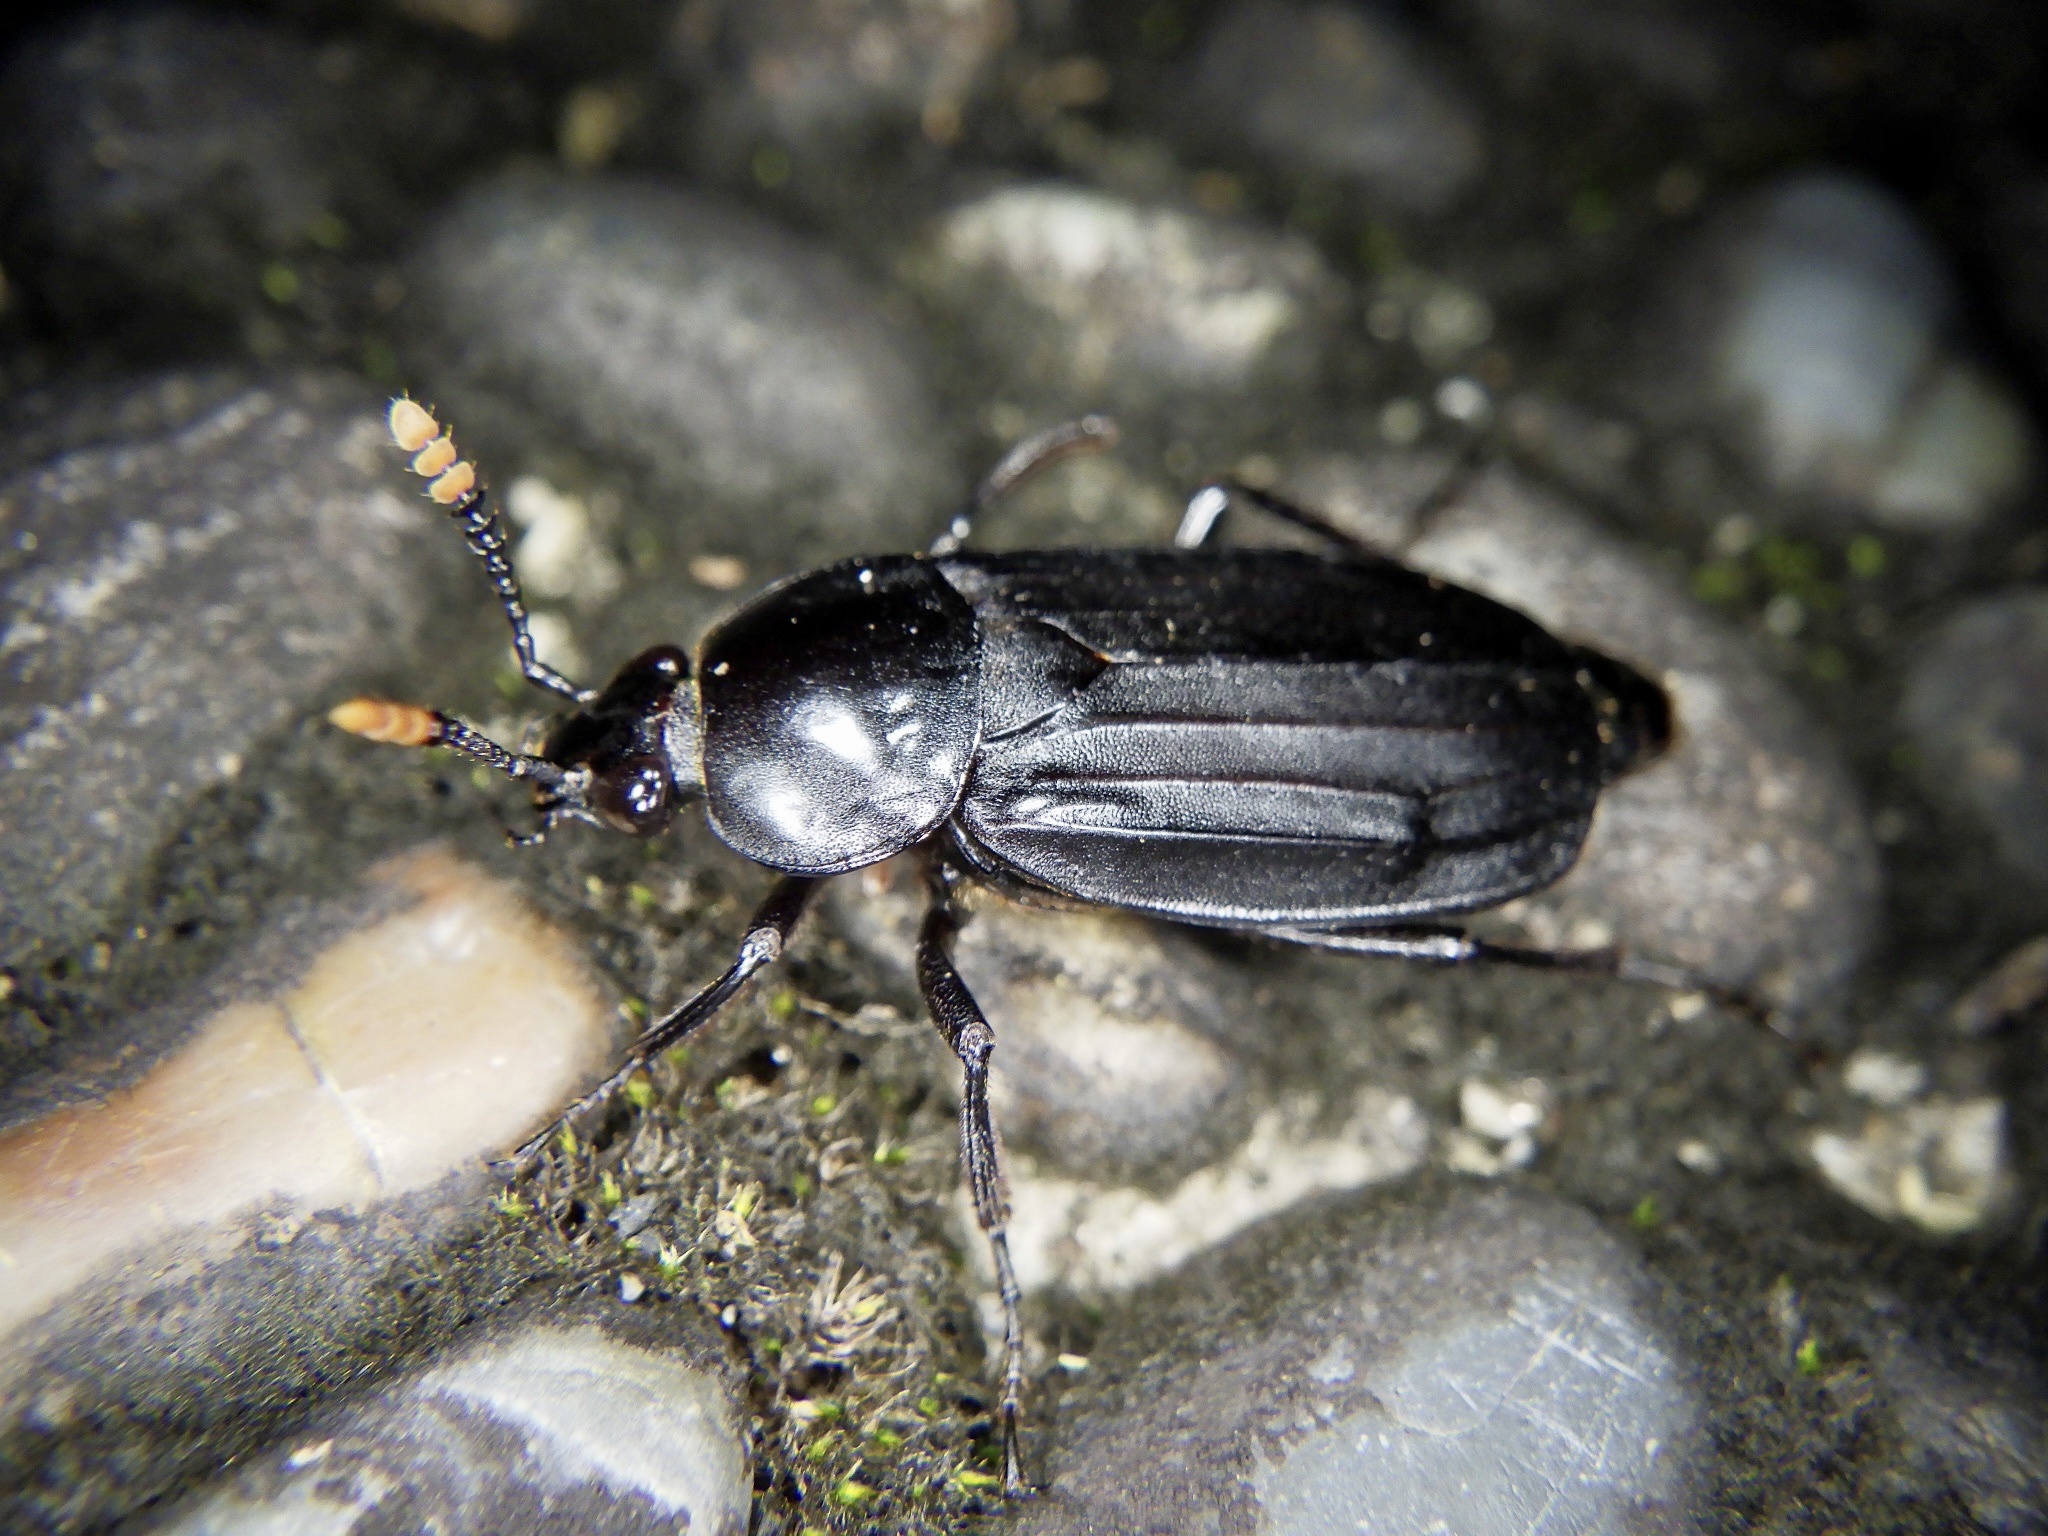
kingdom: Animalia
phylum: Arthropoda
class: Insecta
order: Coleoptera
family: Staphylinidae
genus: Necrodes
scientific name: Necrodes littoralis
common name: Shore sexton beetle
